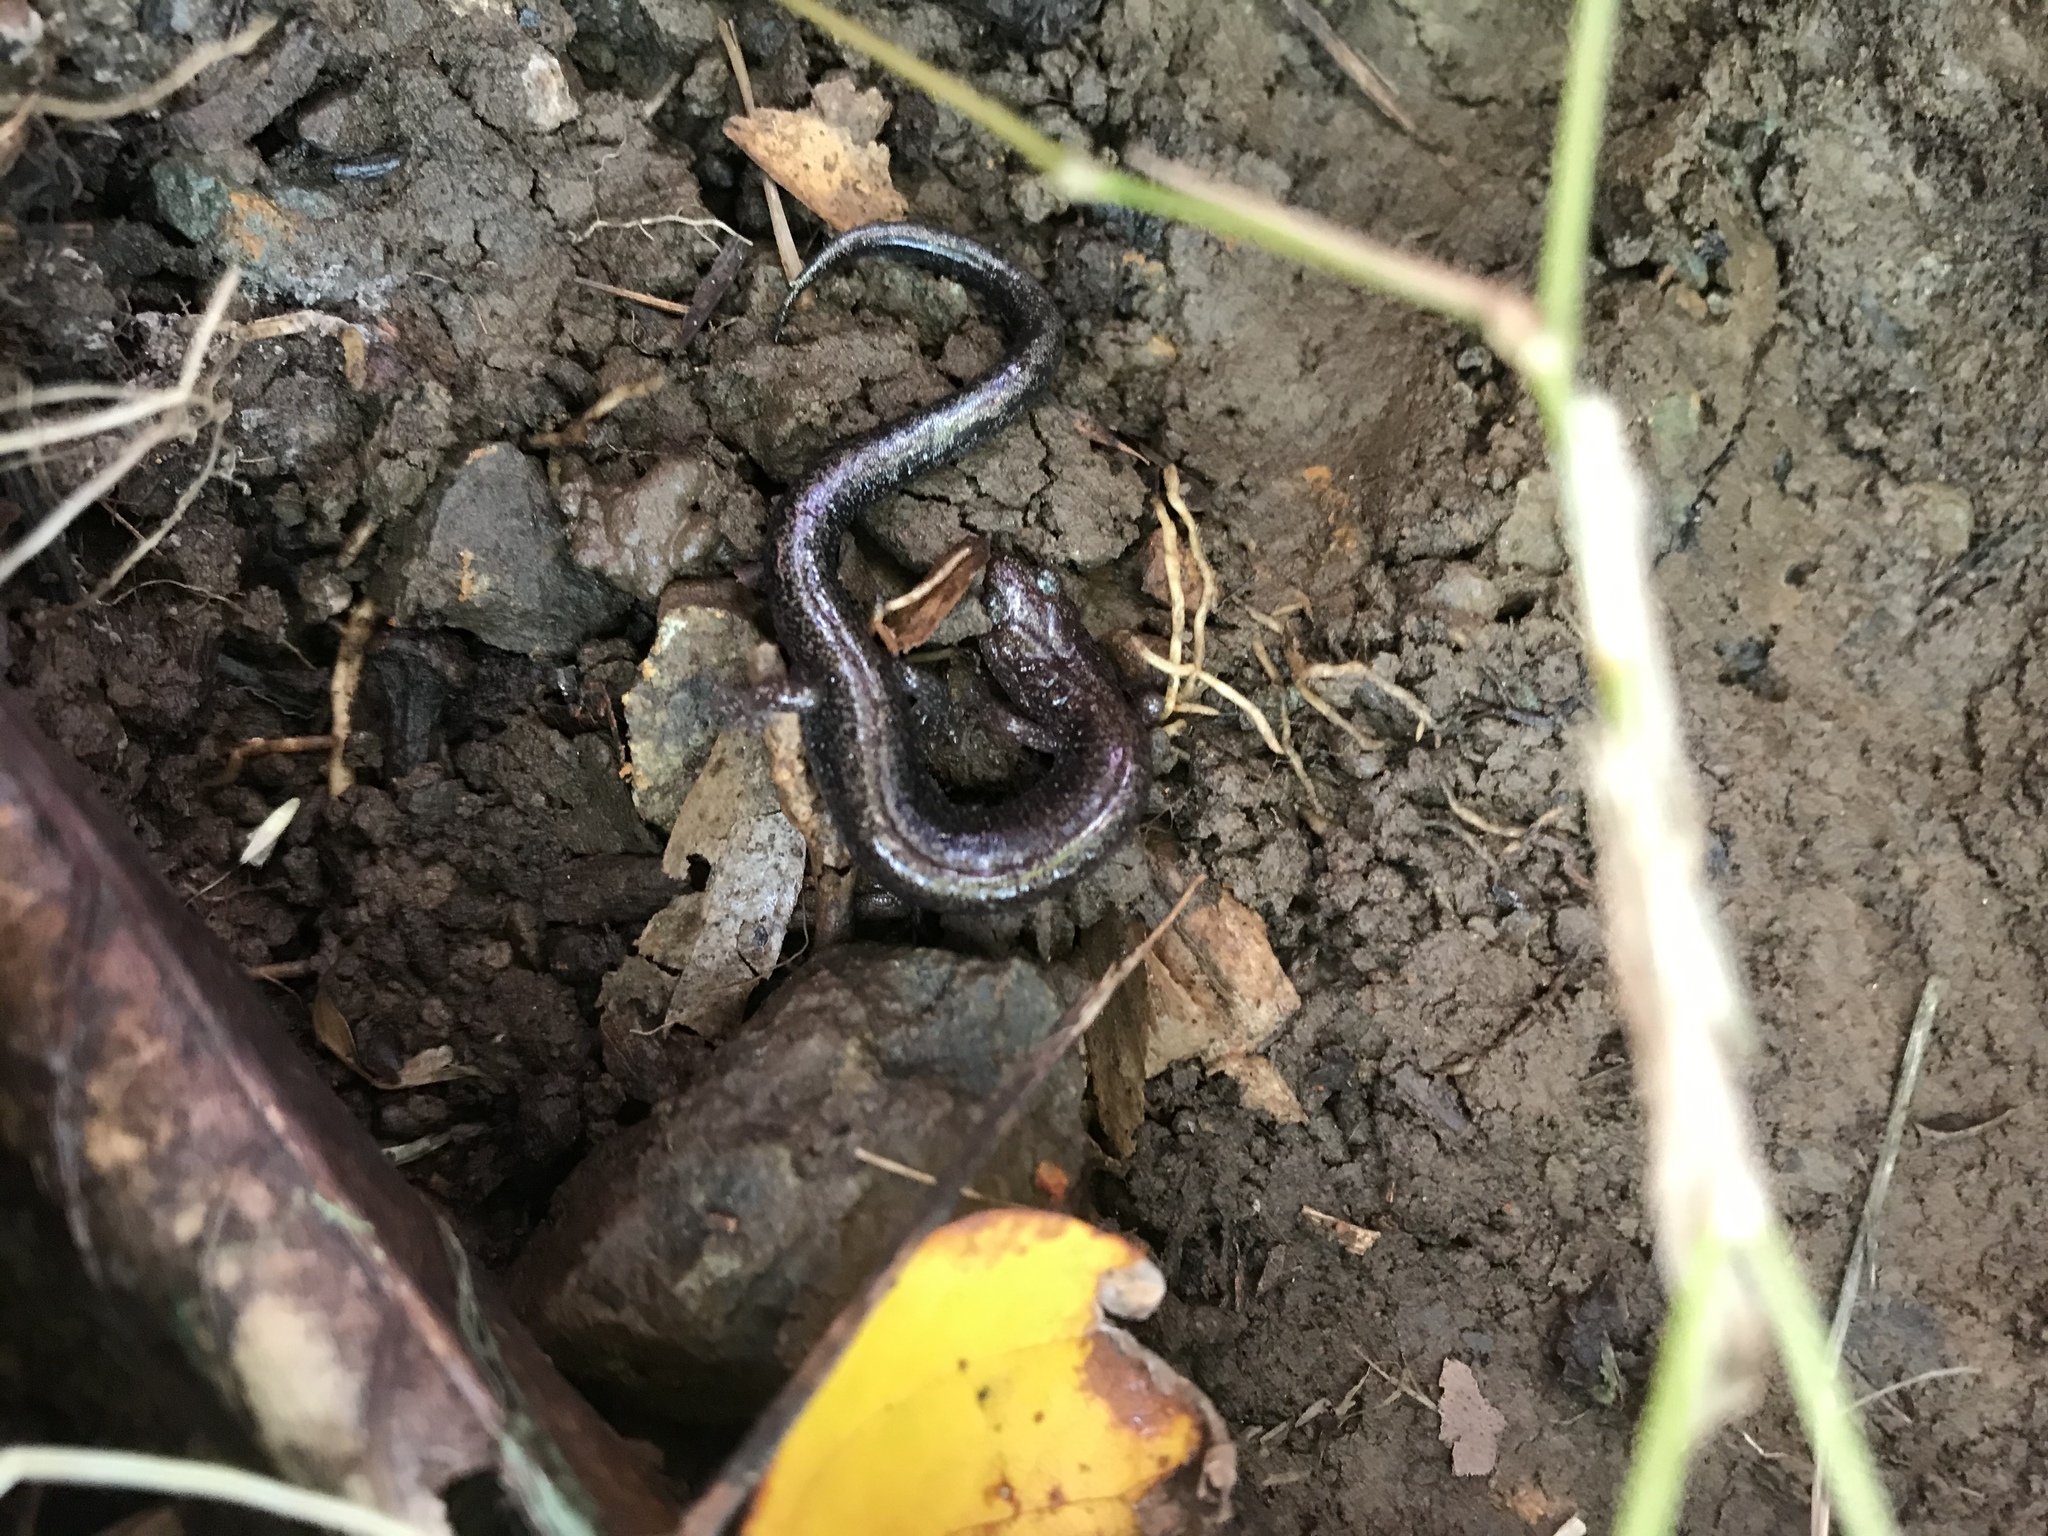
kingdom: Animalia
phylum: Chordata
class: Amphibia
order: Caudata
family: Plethodontidae
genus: Plethodon
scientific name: Plethodon cinereus
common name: Redback salamander
